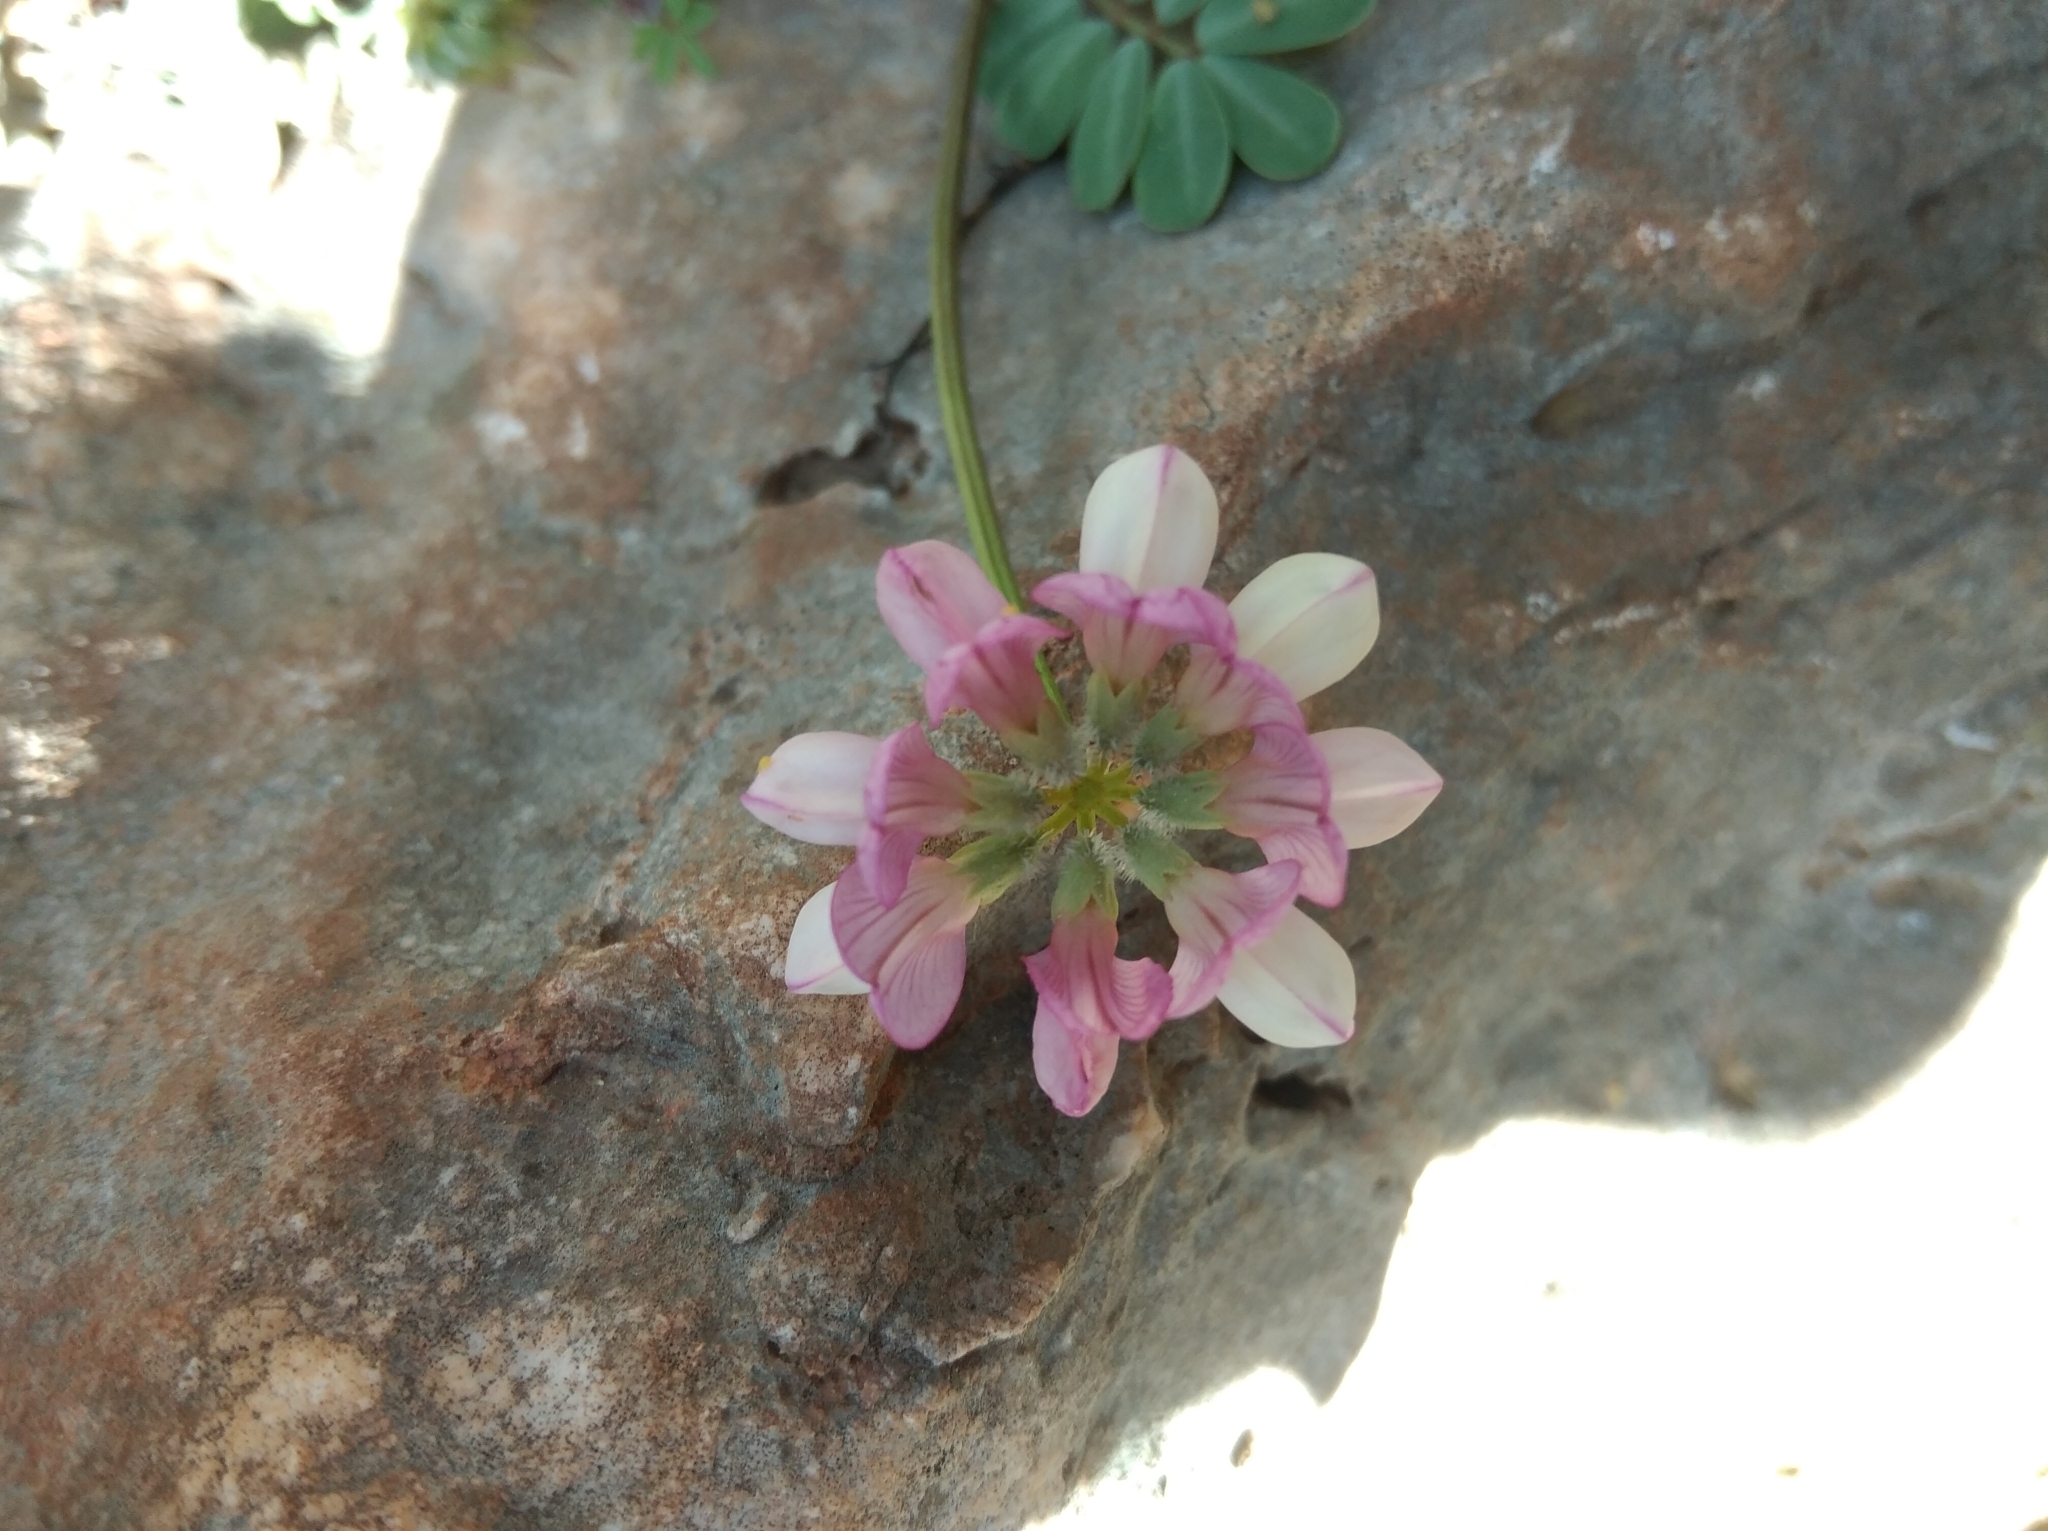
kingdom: Plantae
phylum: Tracheophyta
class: Magnoliopsida
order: Fabales
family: Fabaceae
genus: Coronilla
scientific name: Coronilla varia
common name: Crownvetch
